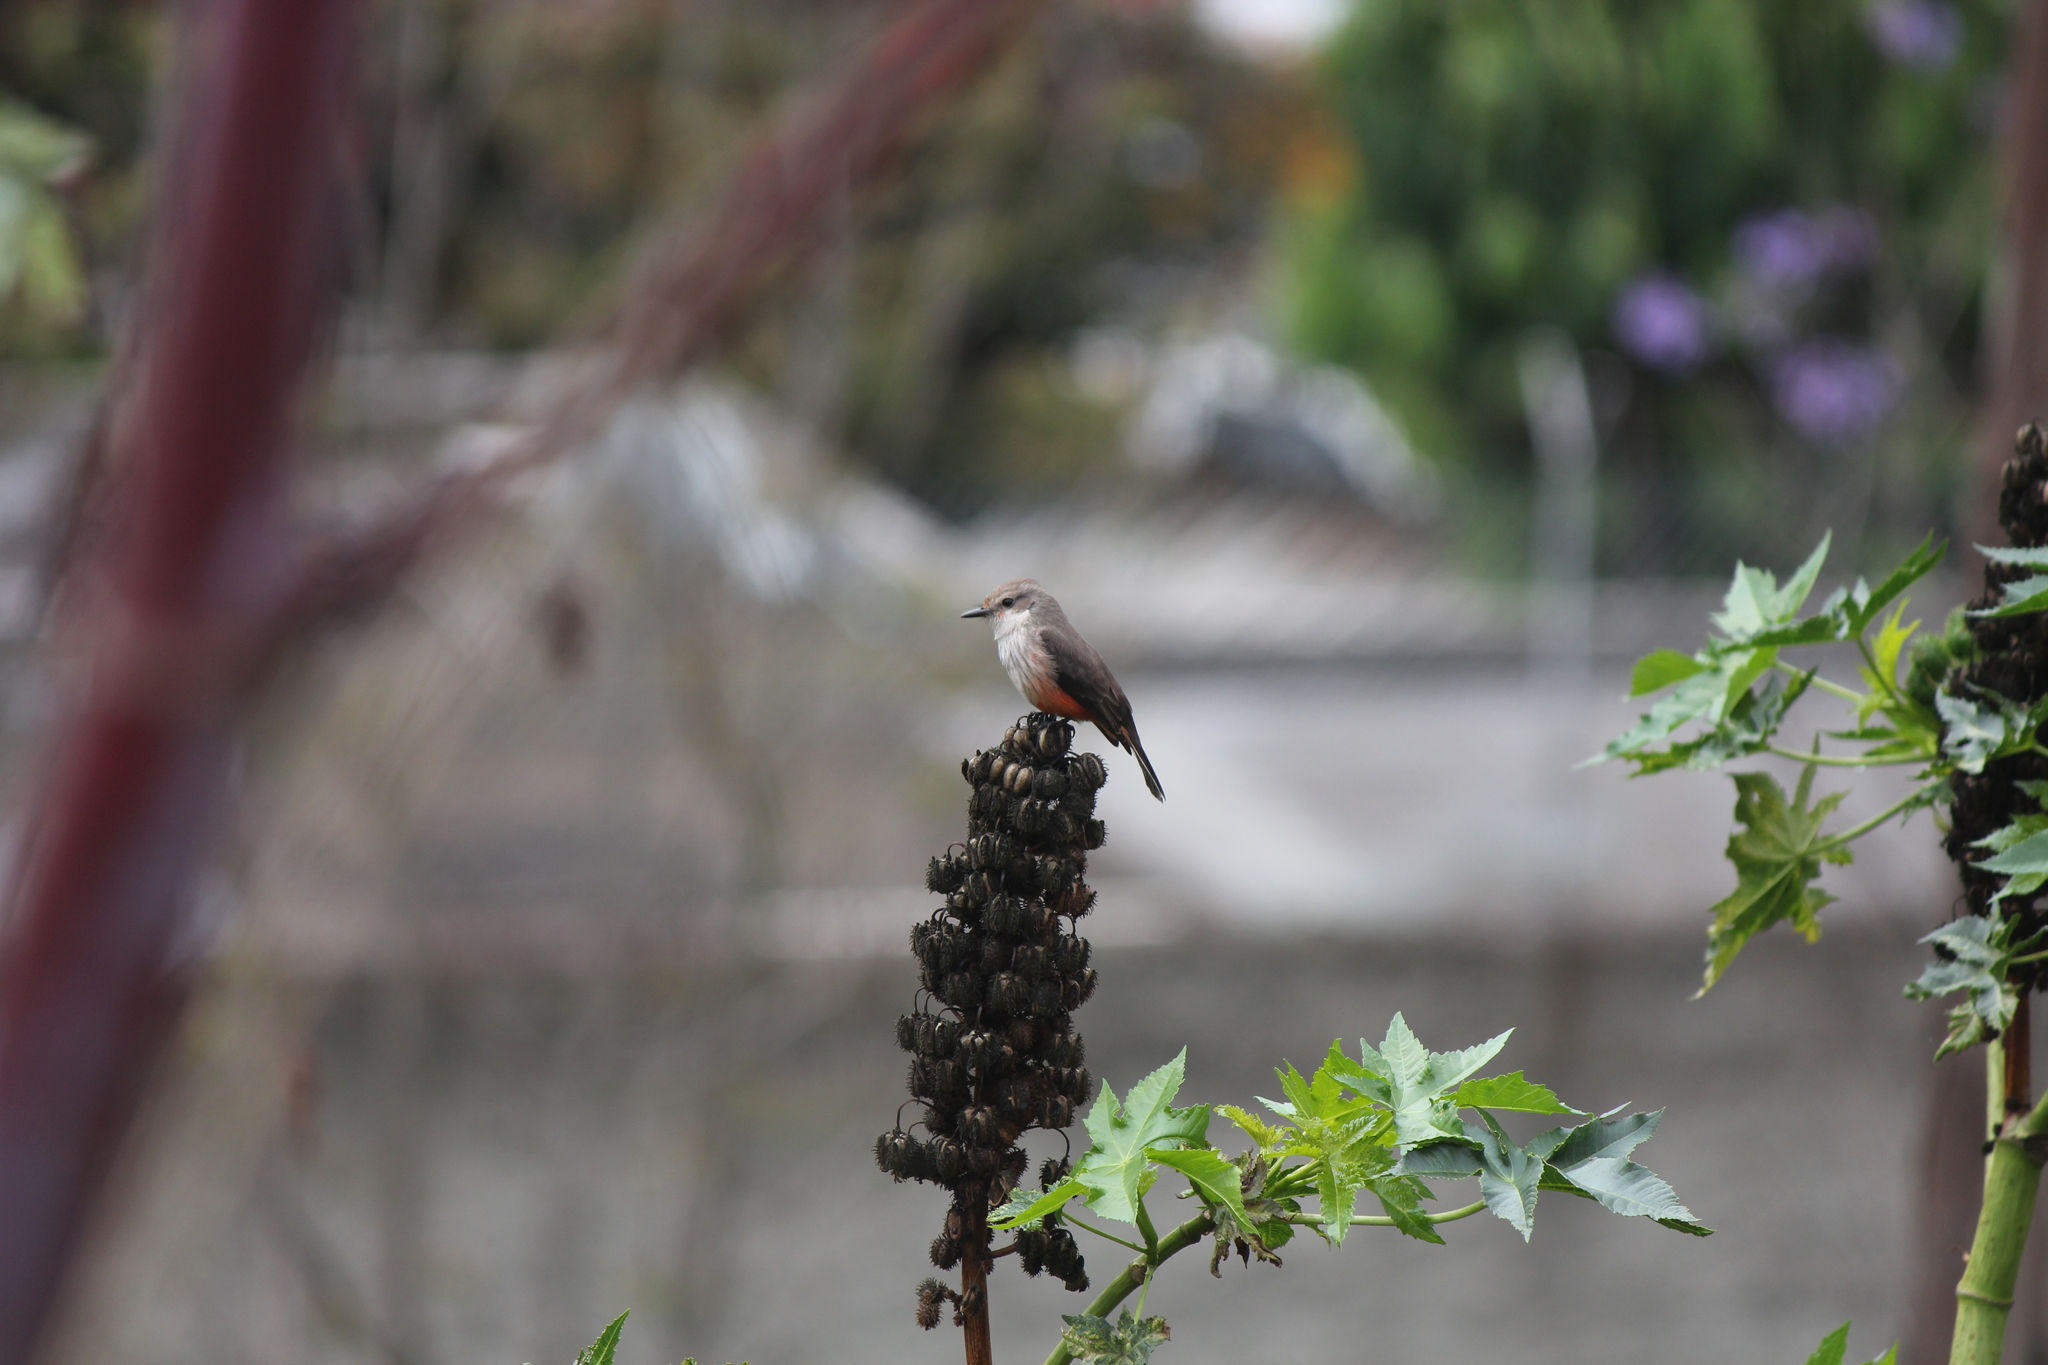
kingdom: Animalia
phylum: Chordata
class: Aves
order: Passeriformes
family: Tyrannidae
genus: Pyrocephalus
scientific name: Pyrocephalus rubinus
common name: Vermilion flycatcher
